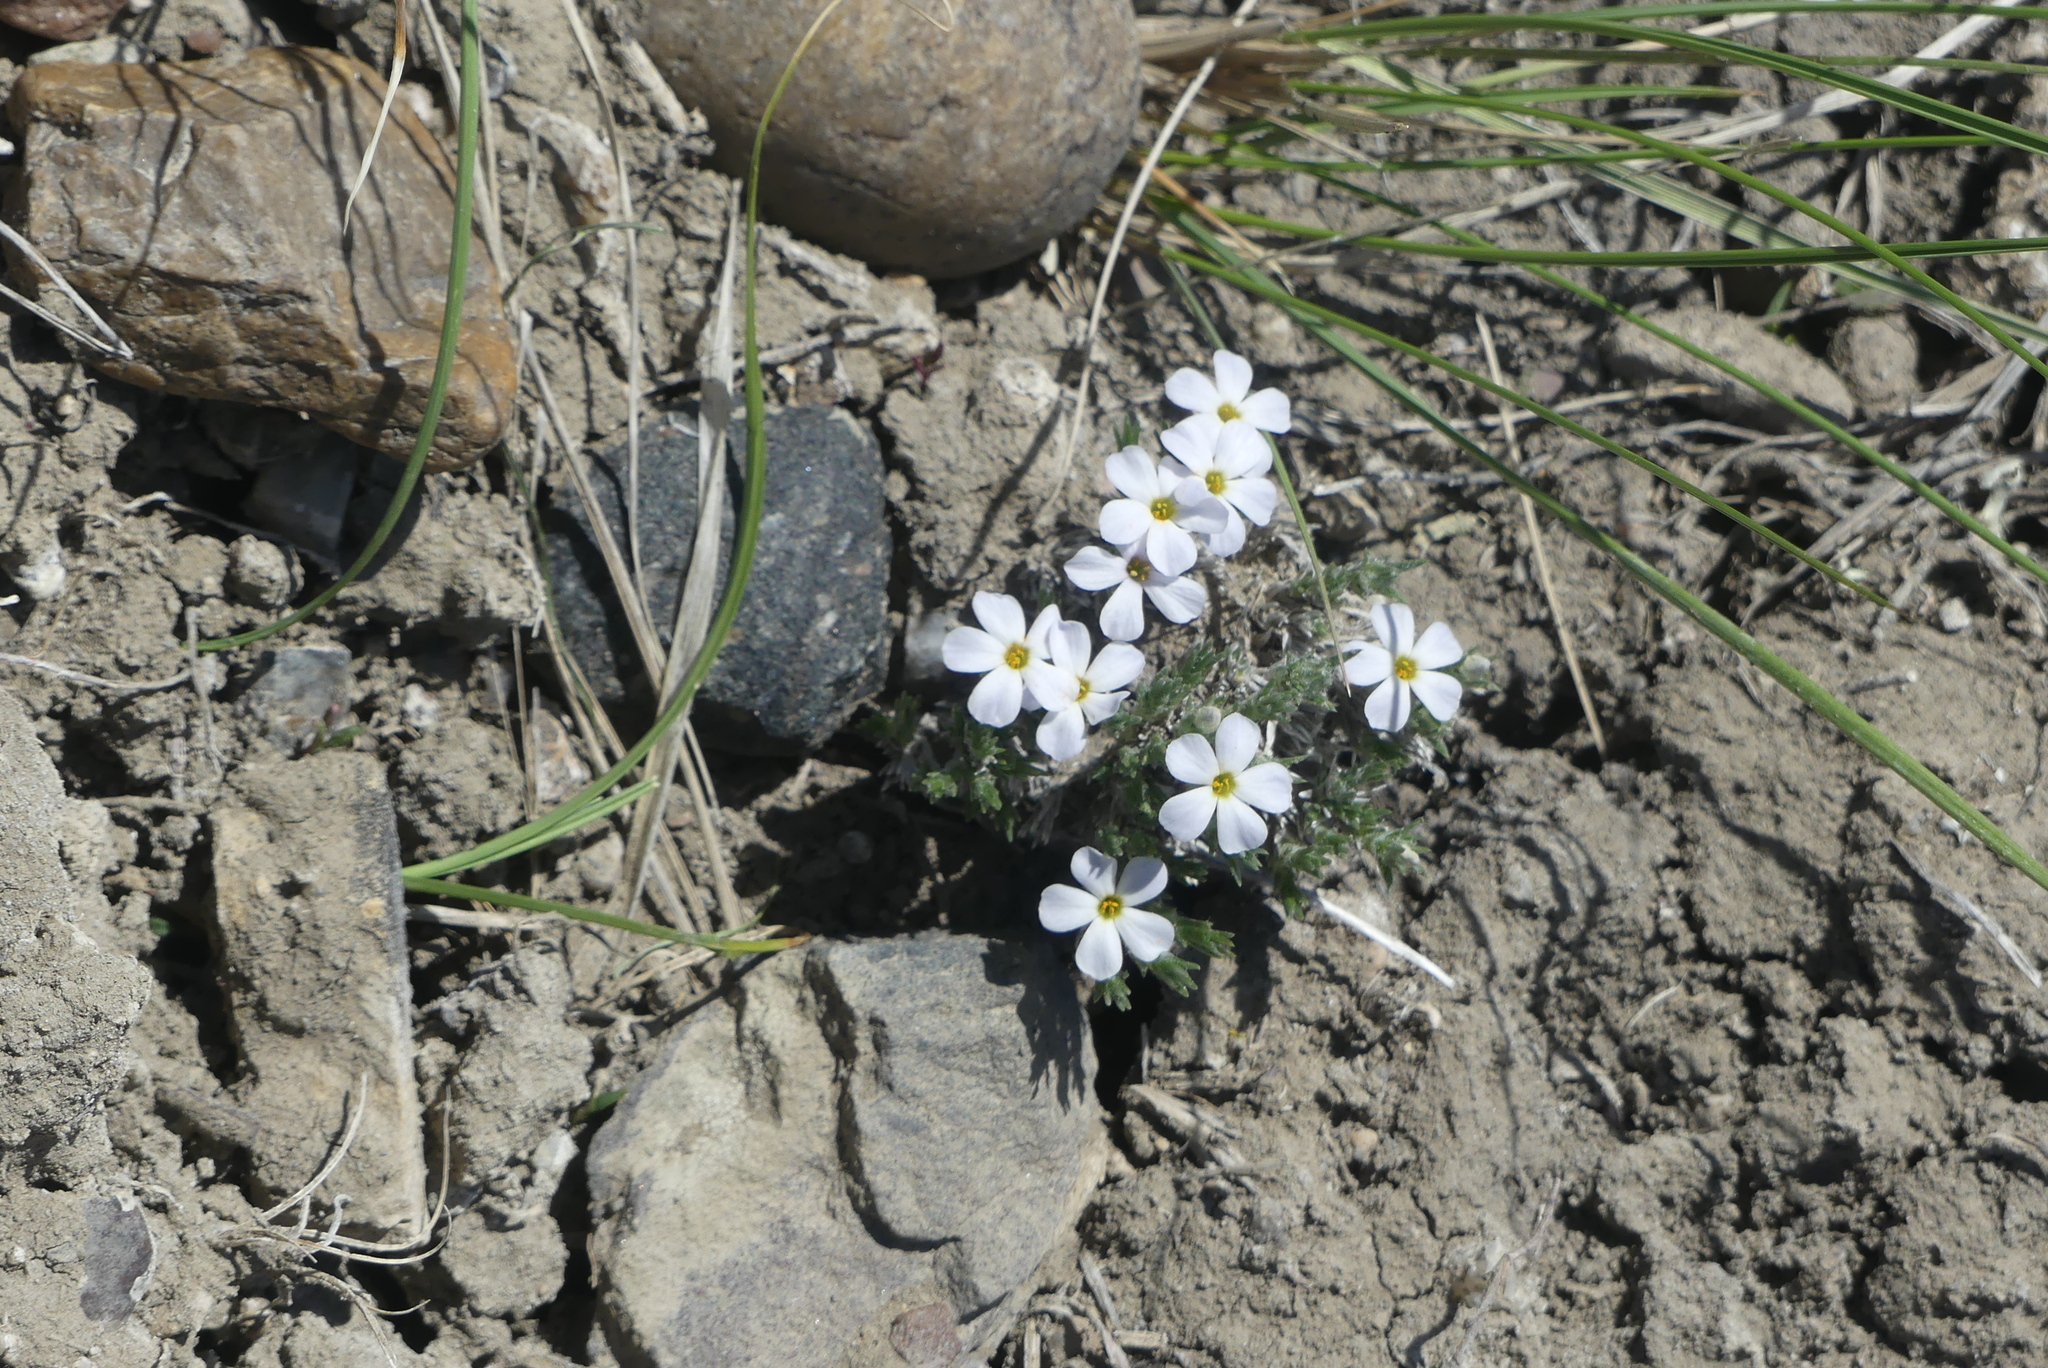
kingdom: Plantae
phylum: Tracheophyta
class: Magnoliopsida
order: Ericales
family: Polemoniaceae
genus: Phlox
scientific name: Phlox hoodii
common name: Moss phlox
